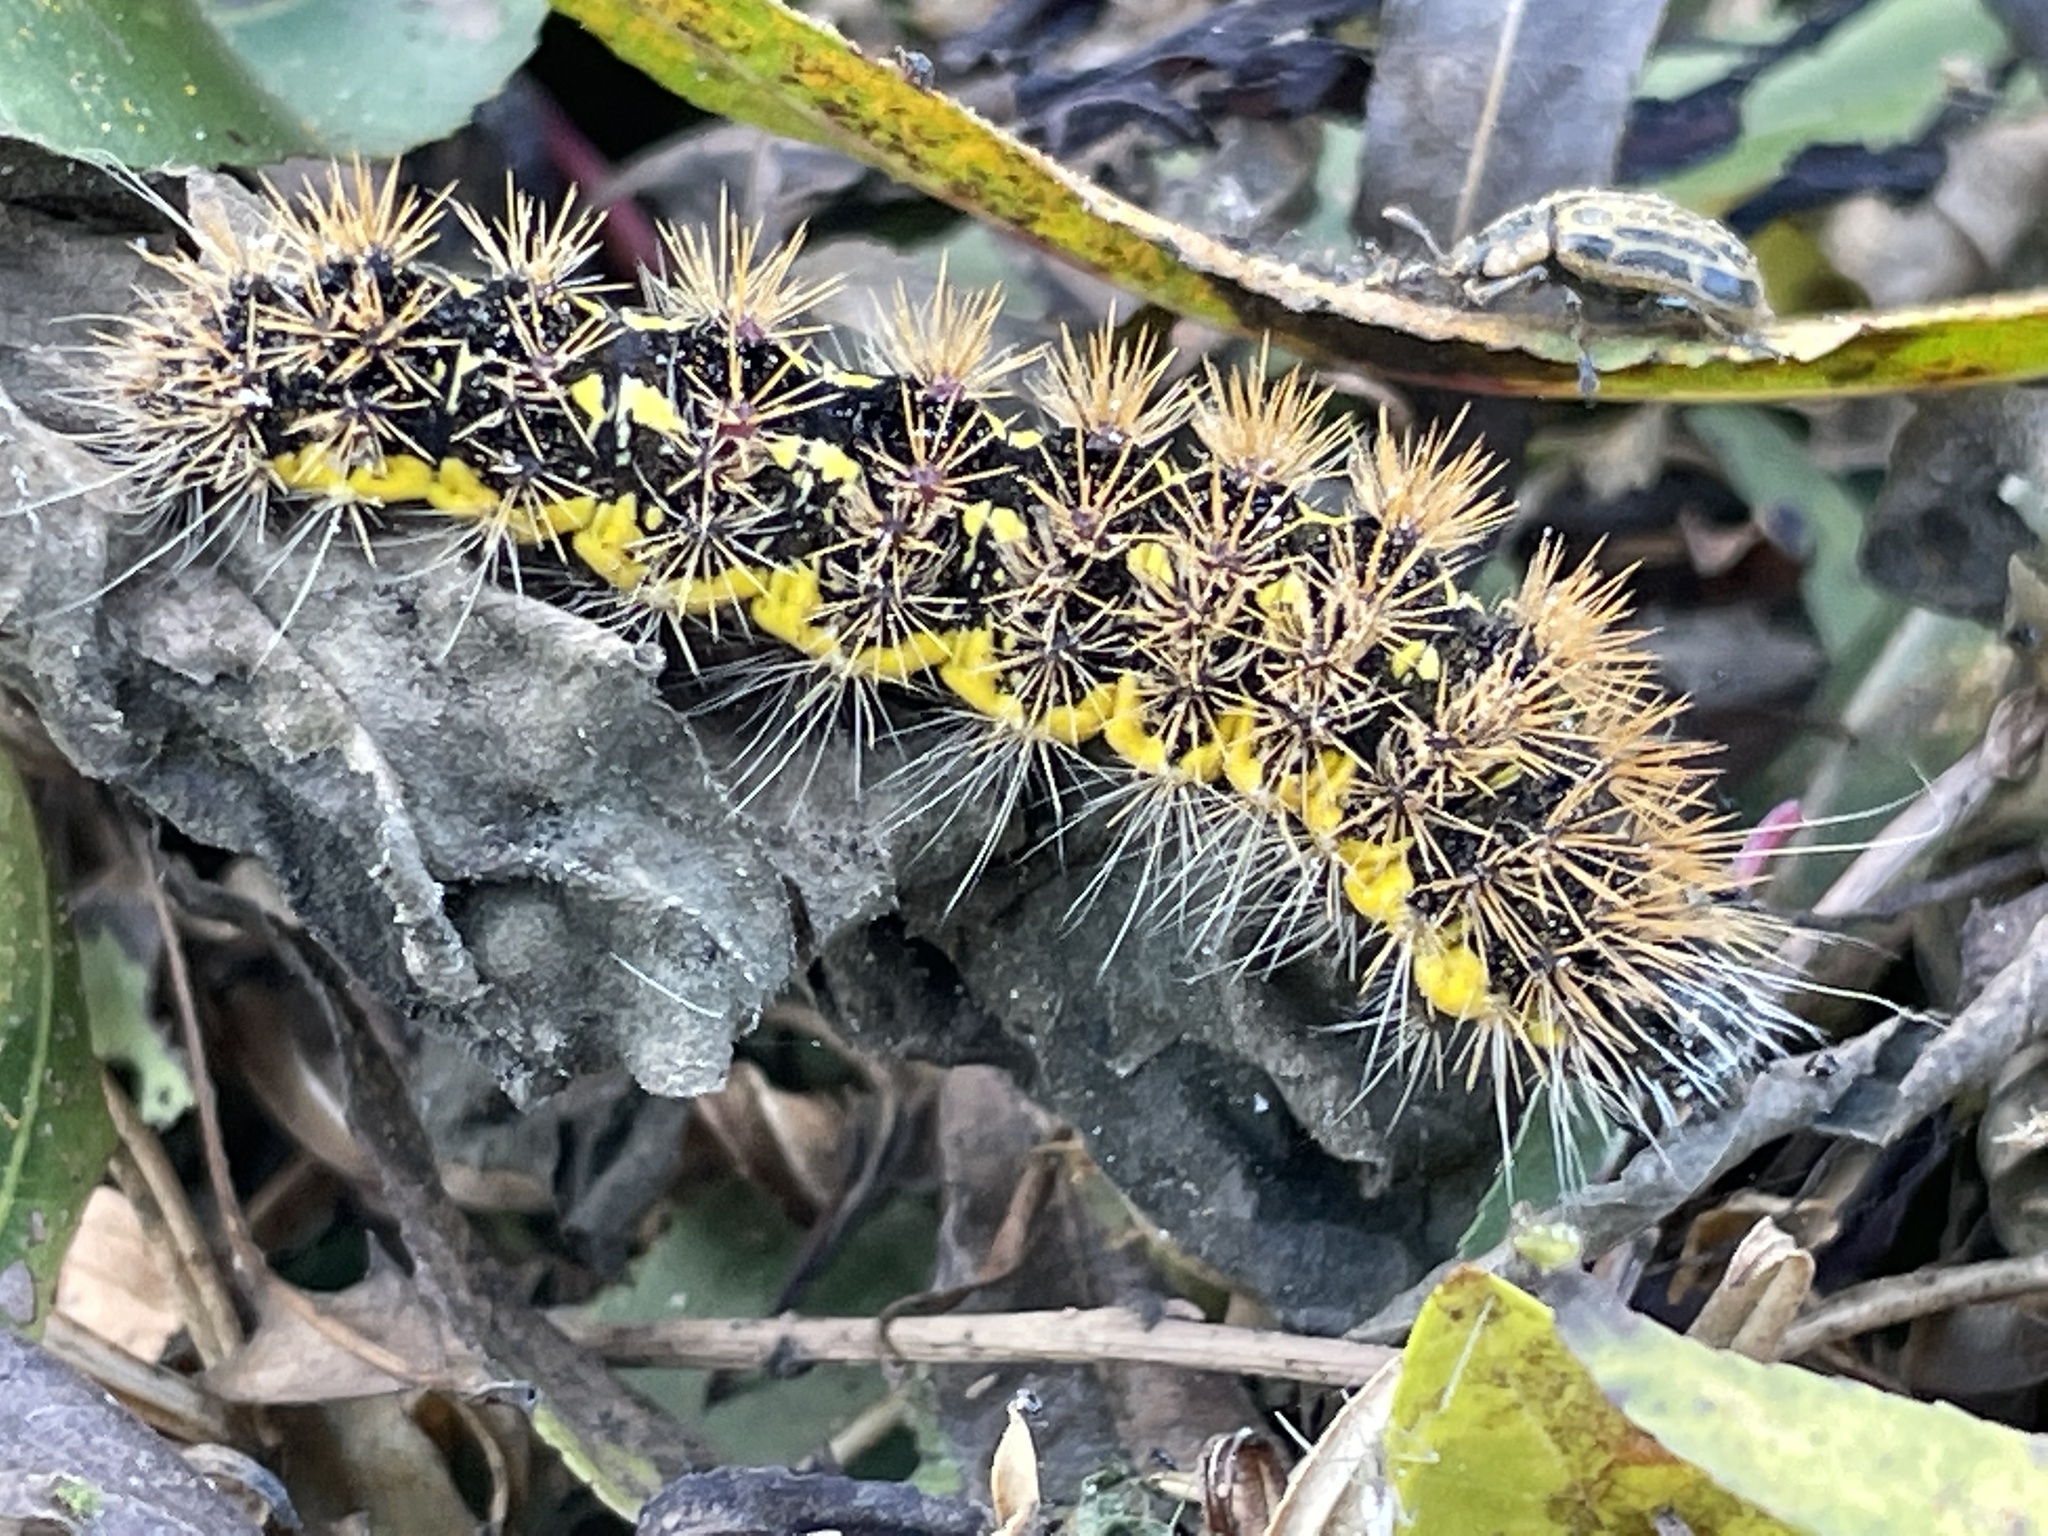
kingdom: Animalia
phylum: Arthropoda
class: Insecta
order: Lepidoptera
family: Noctuidae
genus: Acronicta
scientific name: Acronicta oblinita
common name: Smeared dagger
